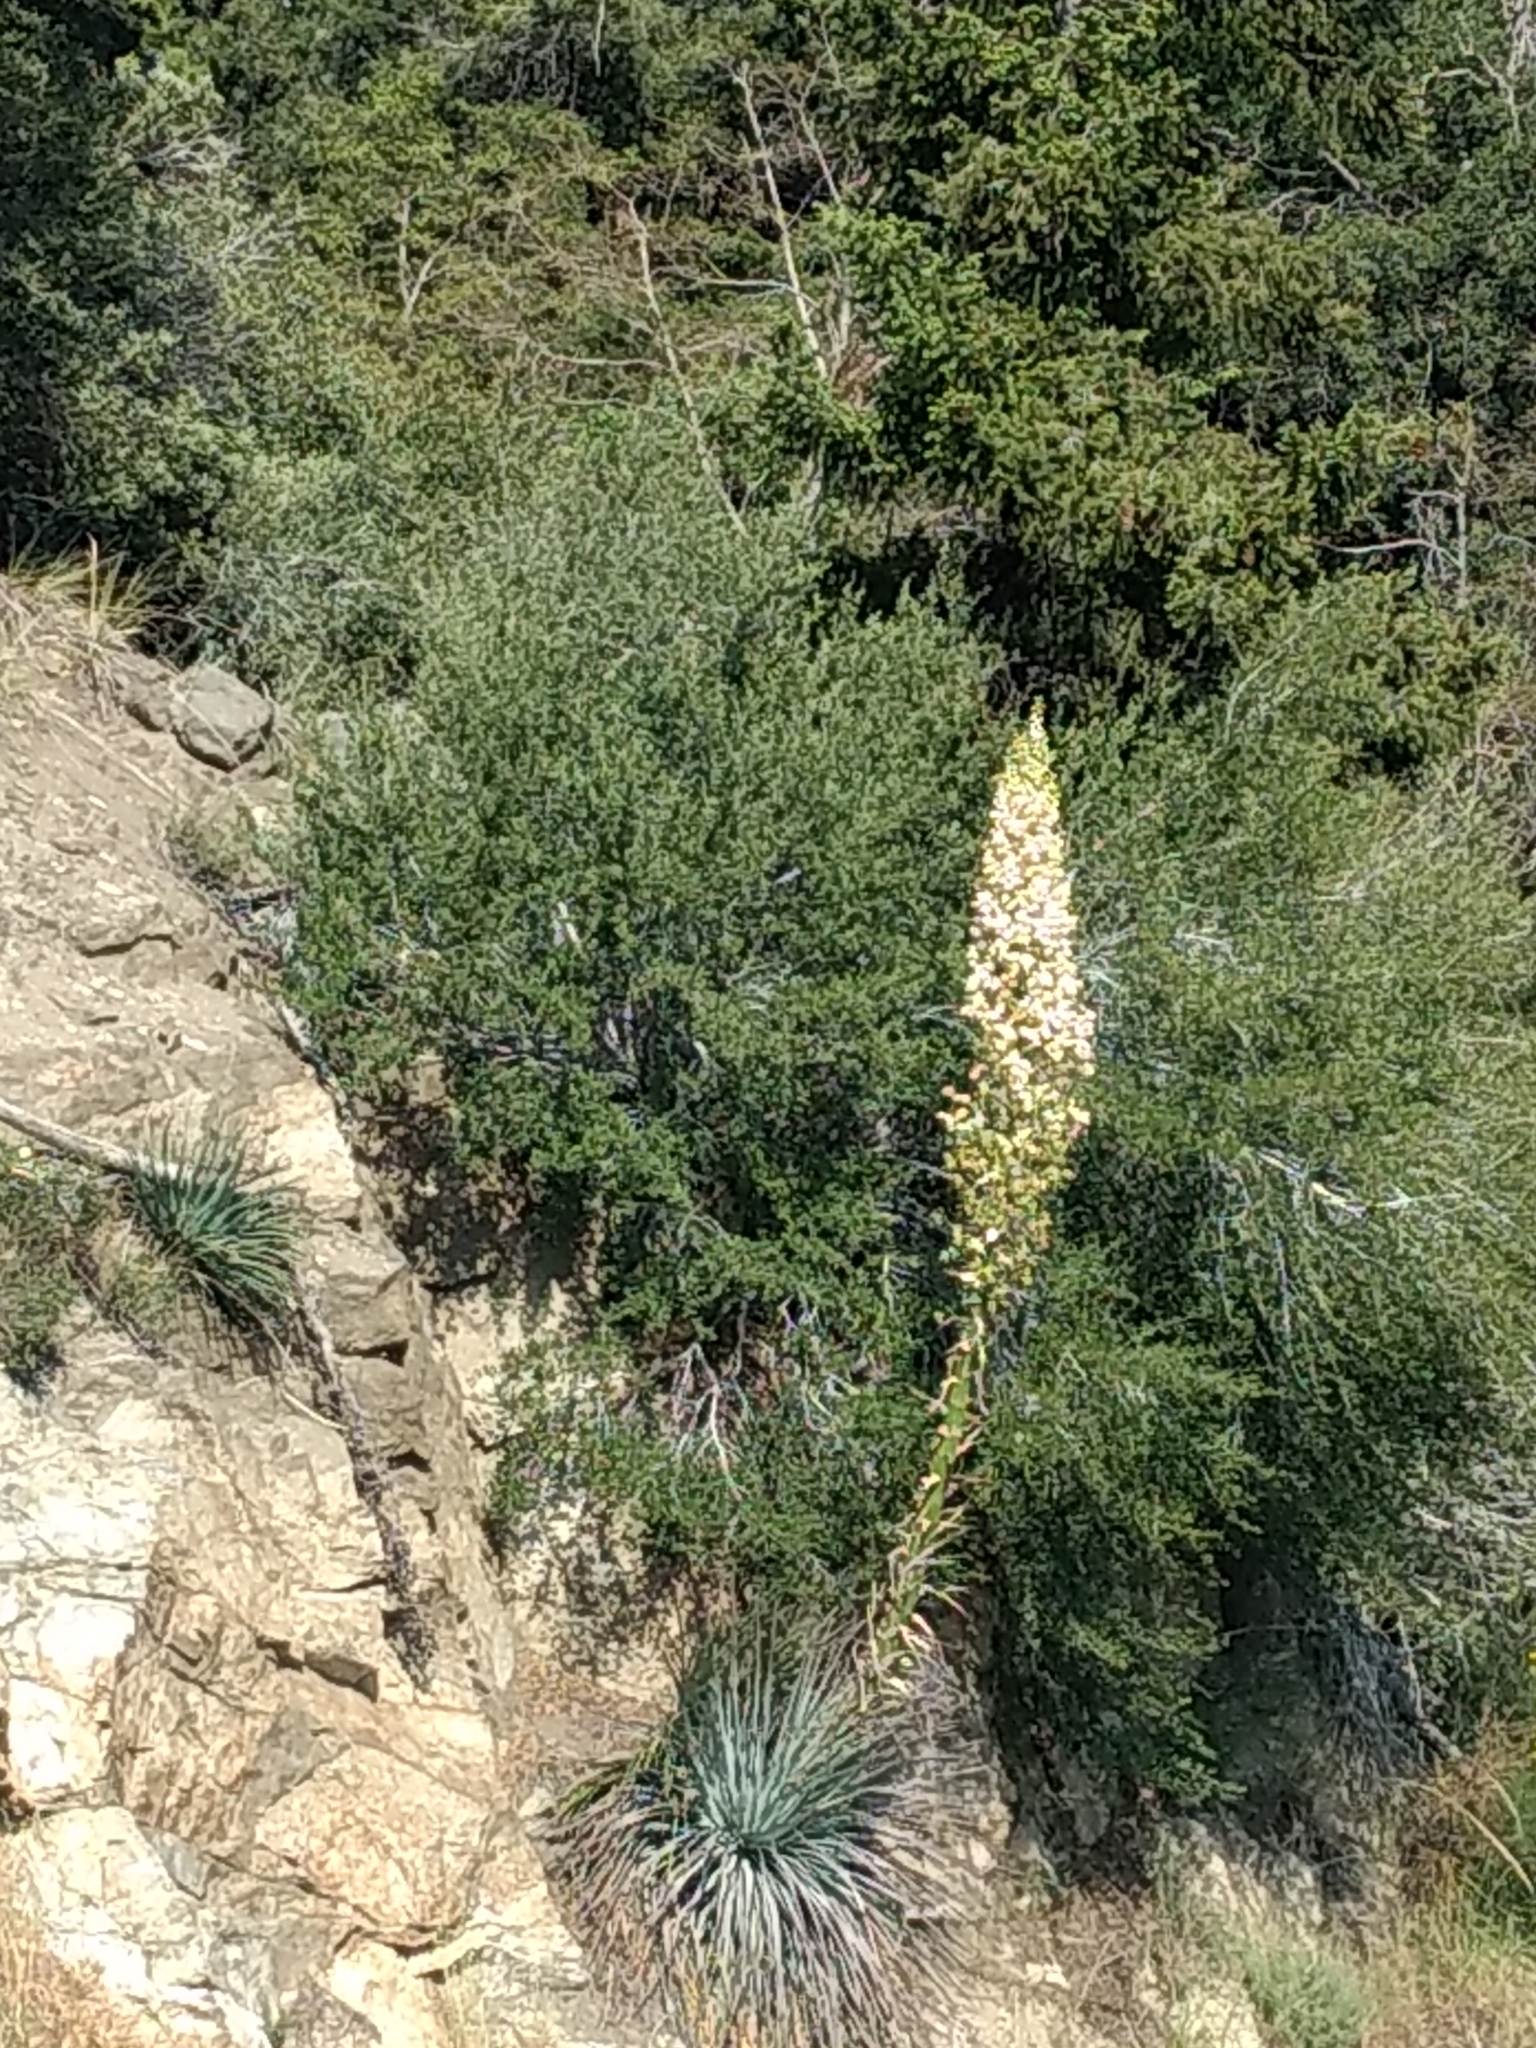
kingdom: Plantae
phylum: Tracheophyta
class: Liliopsida
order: Asparagales
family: Asparagaceae
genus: Hesperoyucca
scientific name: Hesperoyucca whipplei
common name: Our lord's-candle
